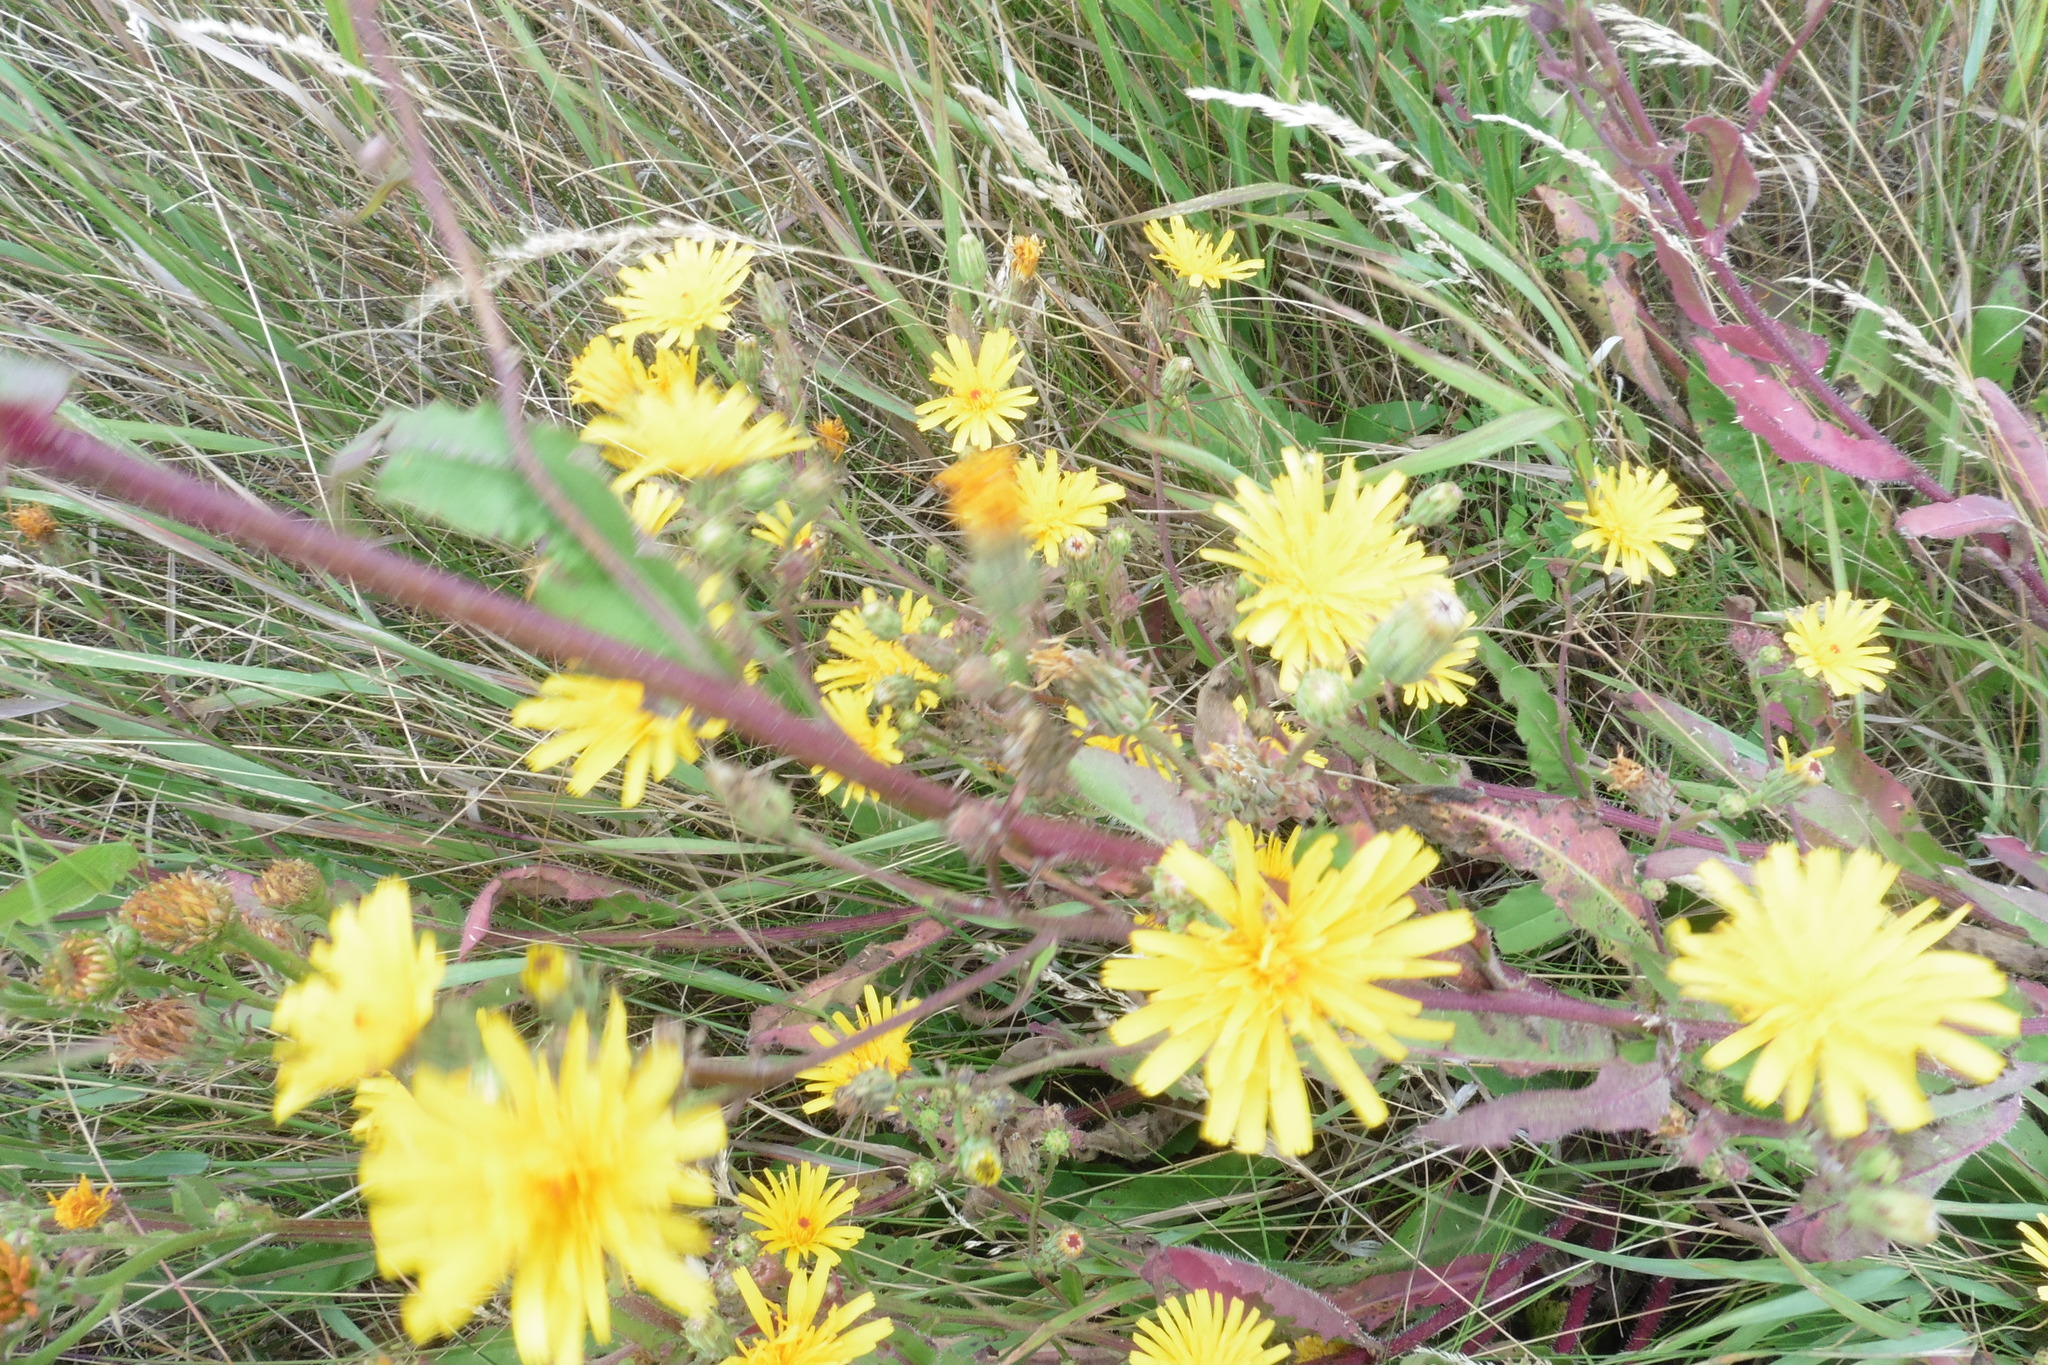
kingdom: Plantae
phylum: Tracheophyta
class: Magnoliopsida
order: Asterales
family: Asteraceae
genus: Picris
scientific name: Picris hieracioides
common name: Hawkweed oxtongue
